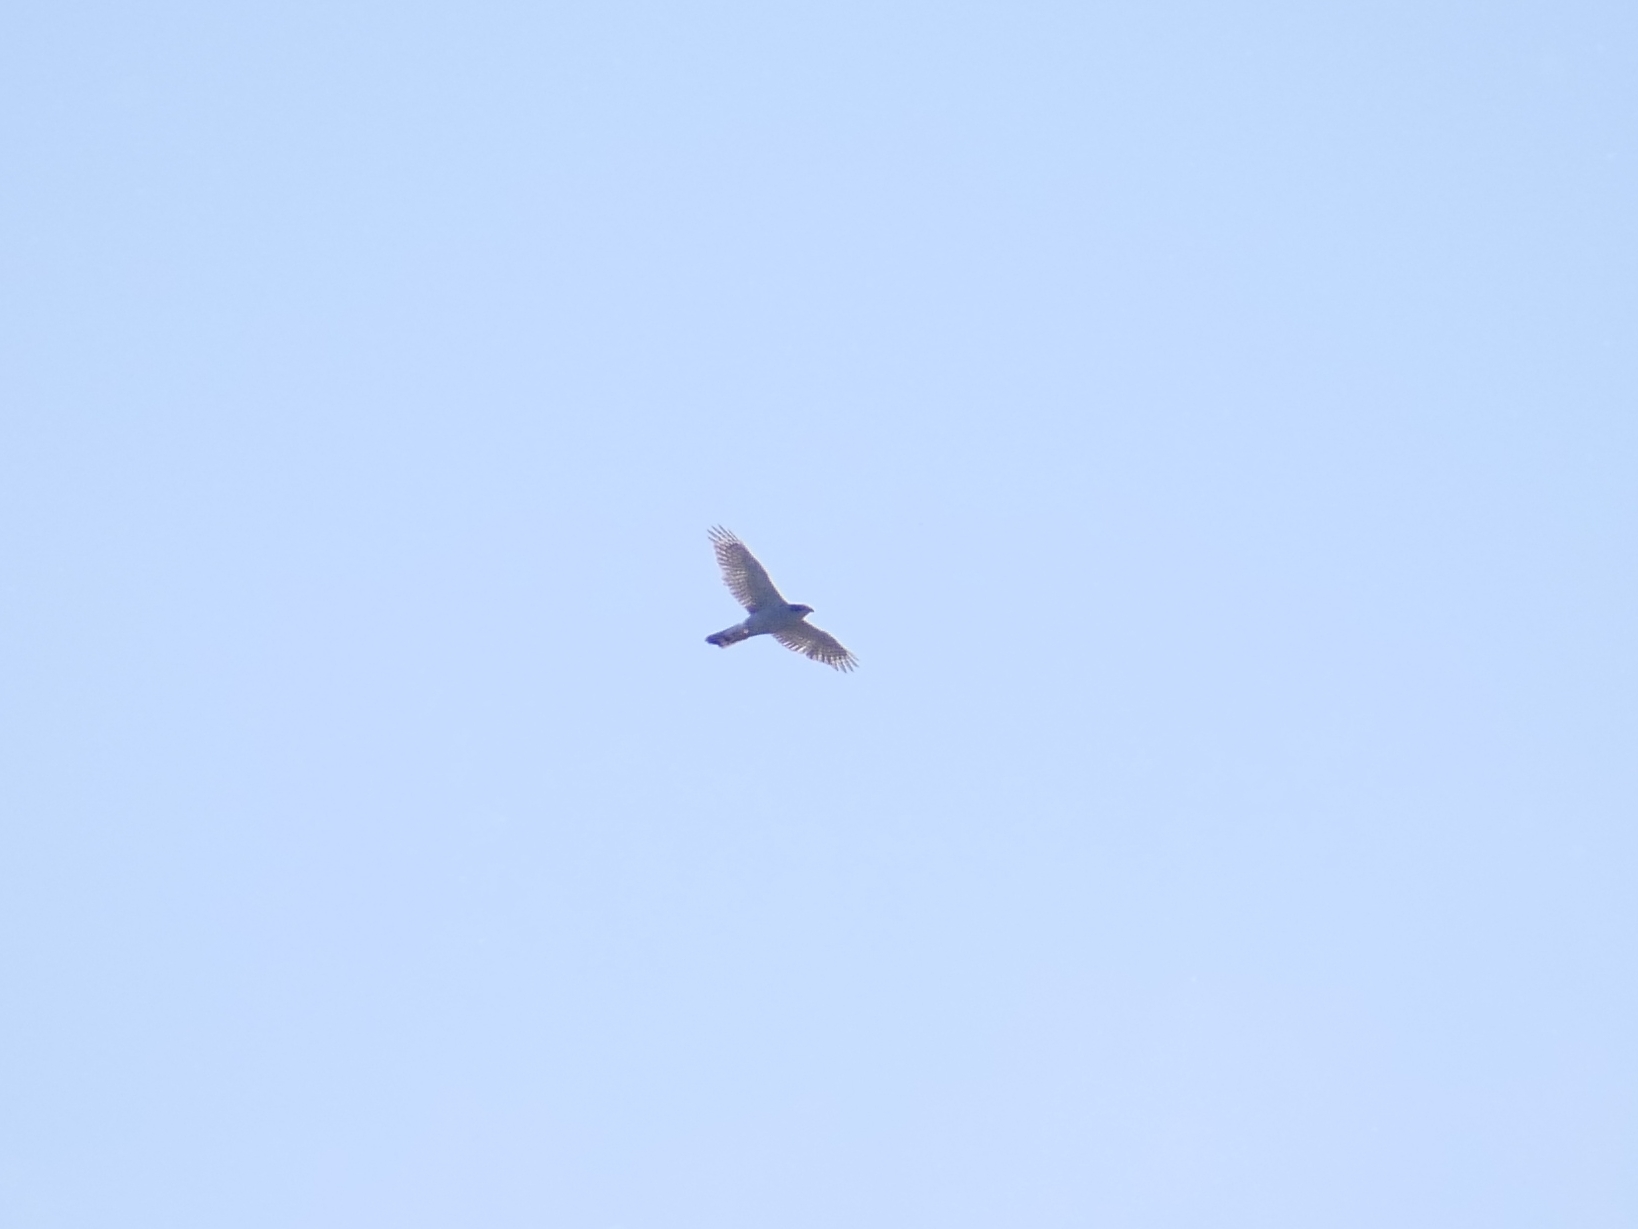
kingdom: Animalia
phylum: Chordata
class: Aves
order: Accipitriformes
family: Accipitridae
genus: Accipiter
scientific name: Accipiter gentilis
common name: Northern goshawk
